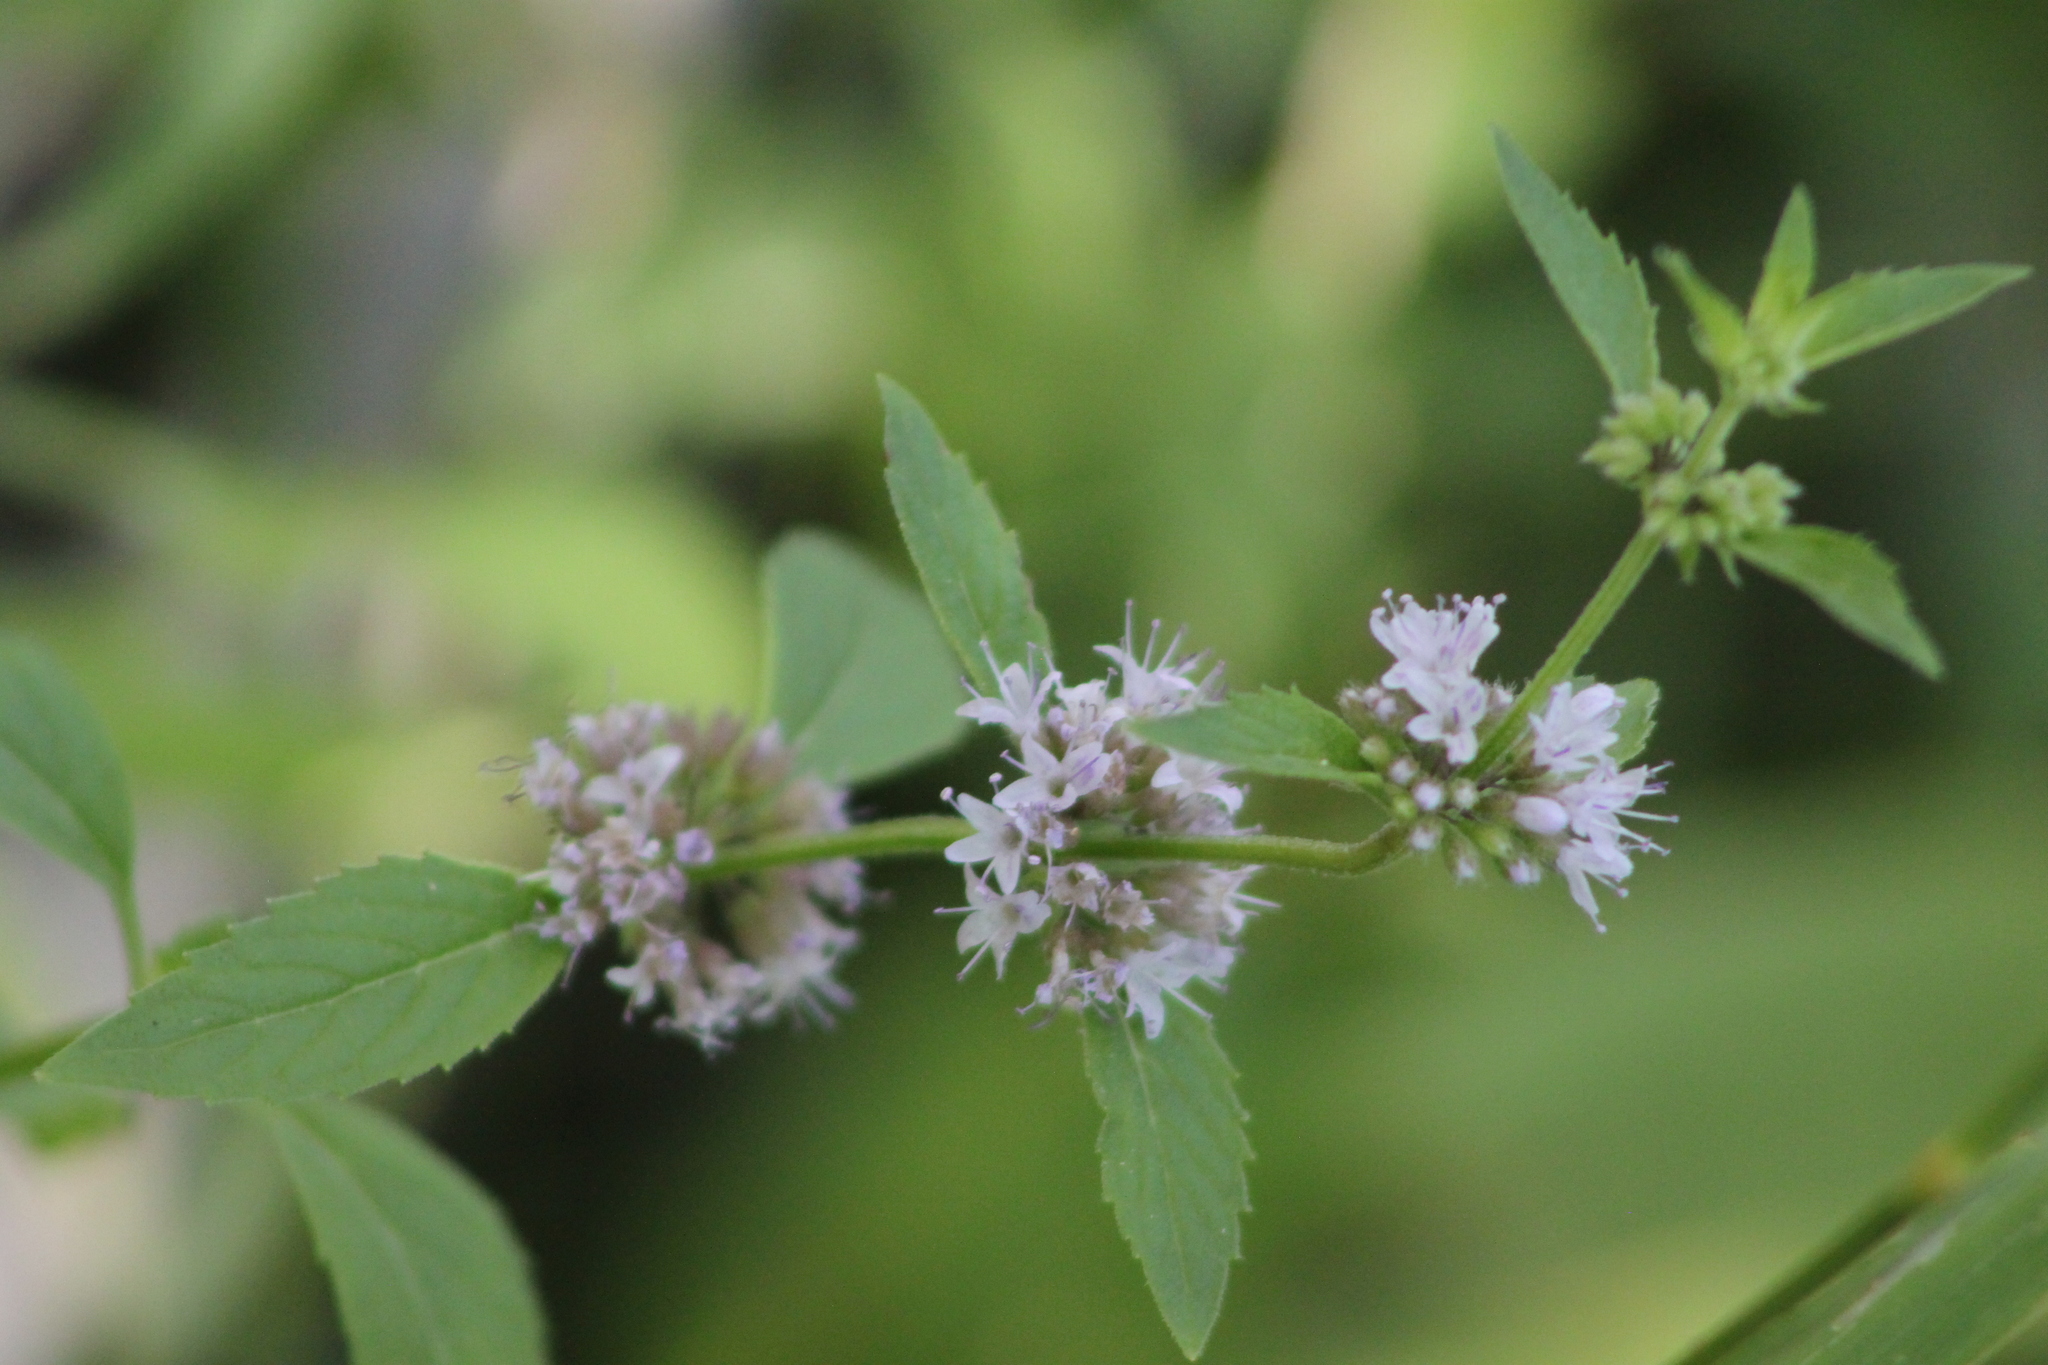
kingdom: Plantae
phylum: Tracheophyta
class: Magnoliopsida
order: Lamiales
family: Lamiaceae
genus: Mentha
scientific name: Mentha arvensis
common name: Corn mint
